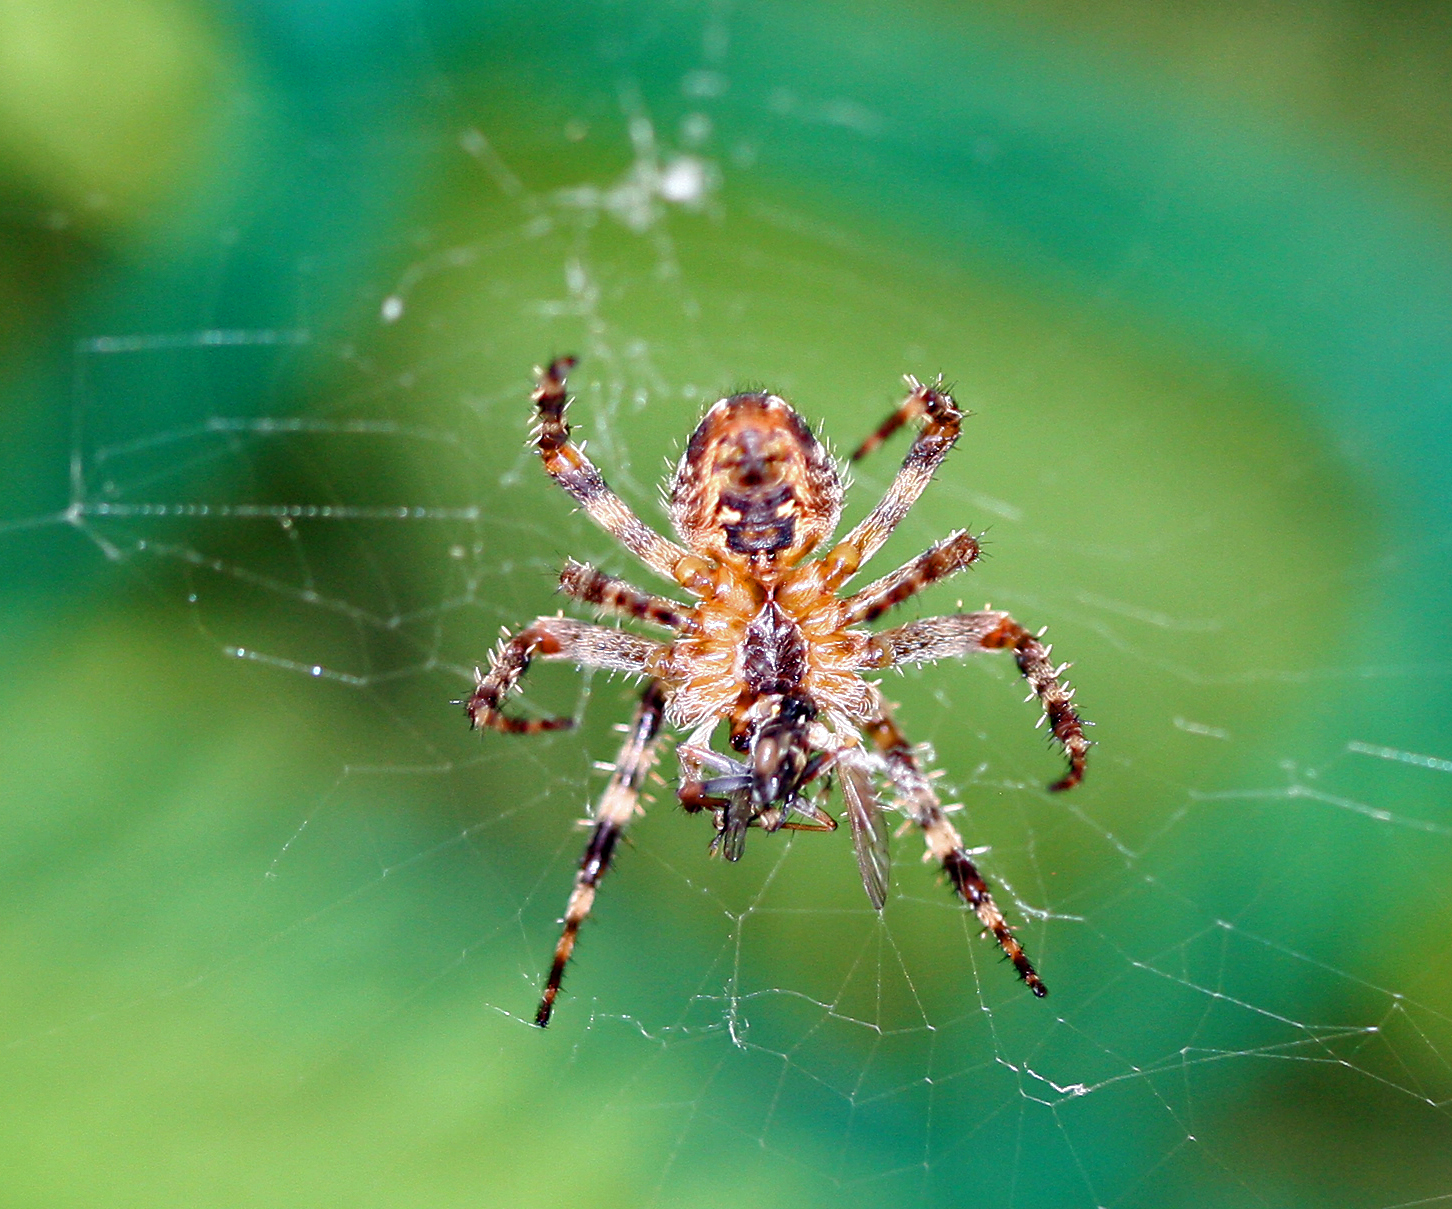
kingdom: Animalia
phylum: Arthropoda
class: Arachnida
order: Araneae
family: Araneidae
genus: Araneus
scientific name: Araneus diadematus
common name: Cross orbweaver
